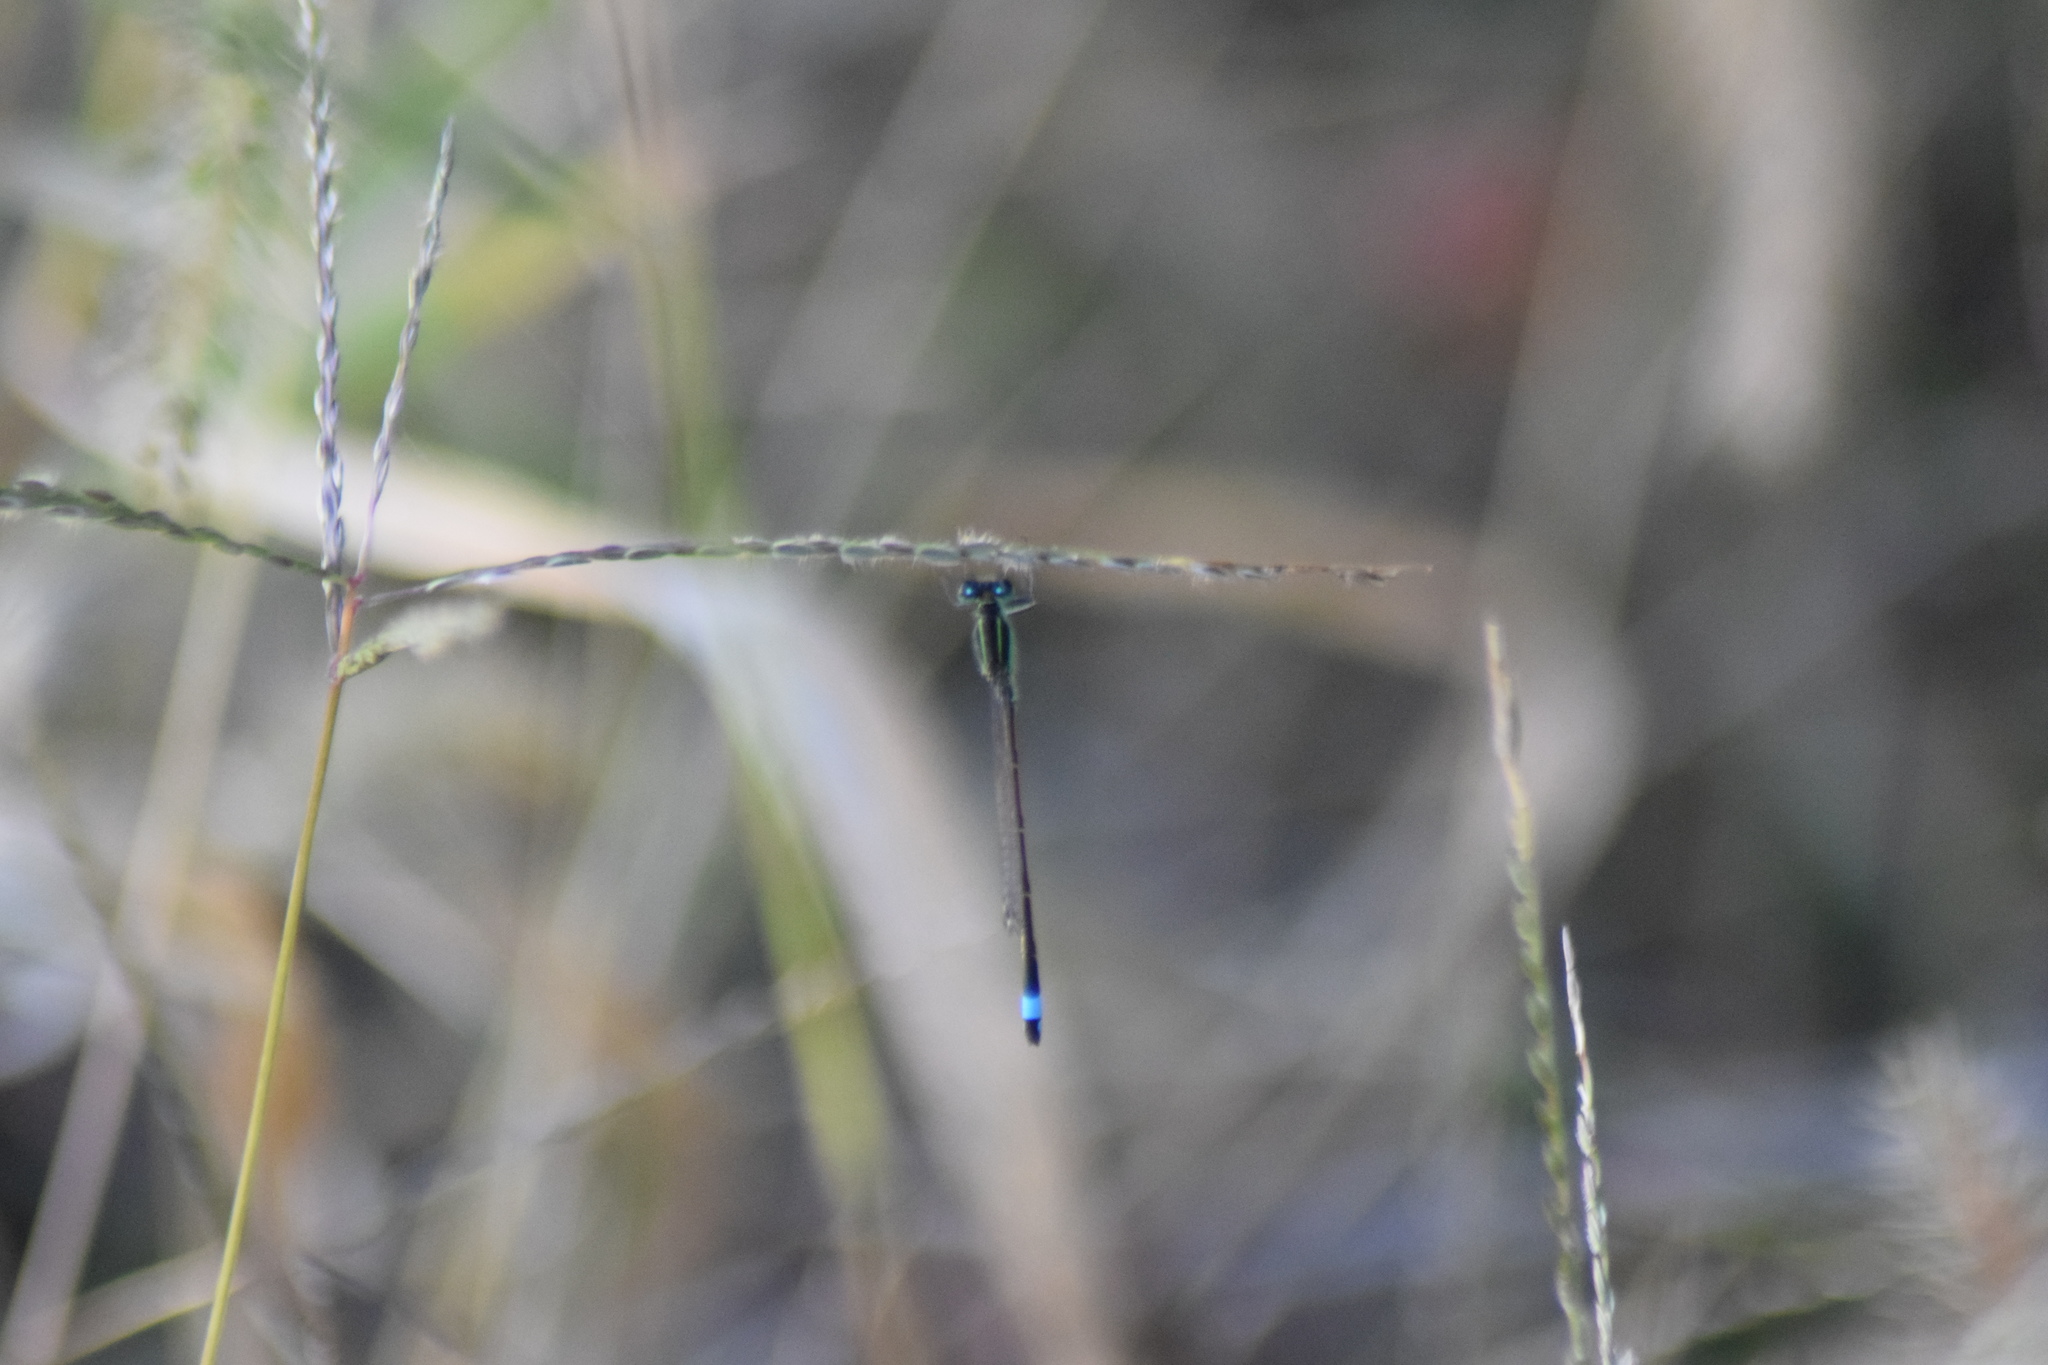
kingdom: Animalia
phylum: Arthropoda
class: Insecta
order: Odonata
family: Coenagrionidae
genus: Ischnura
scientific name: Ischnura ramburii
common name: Rambur's forktail
